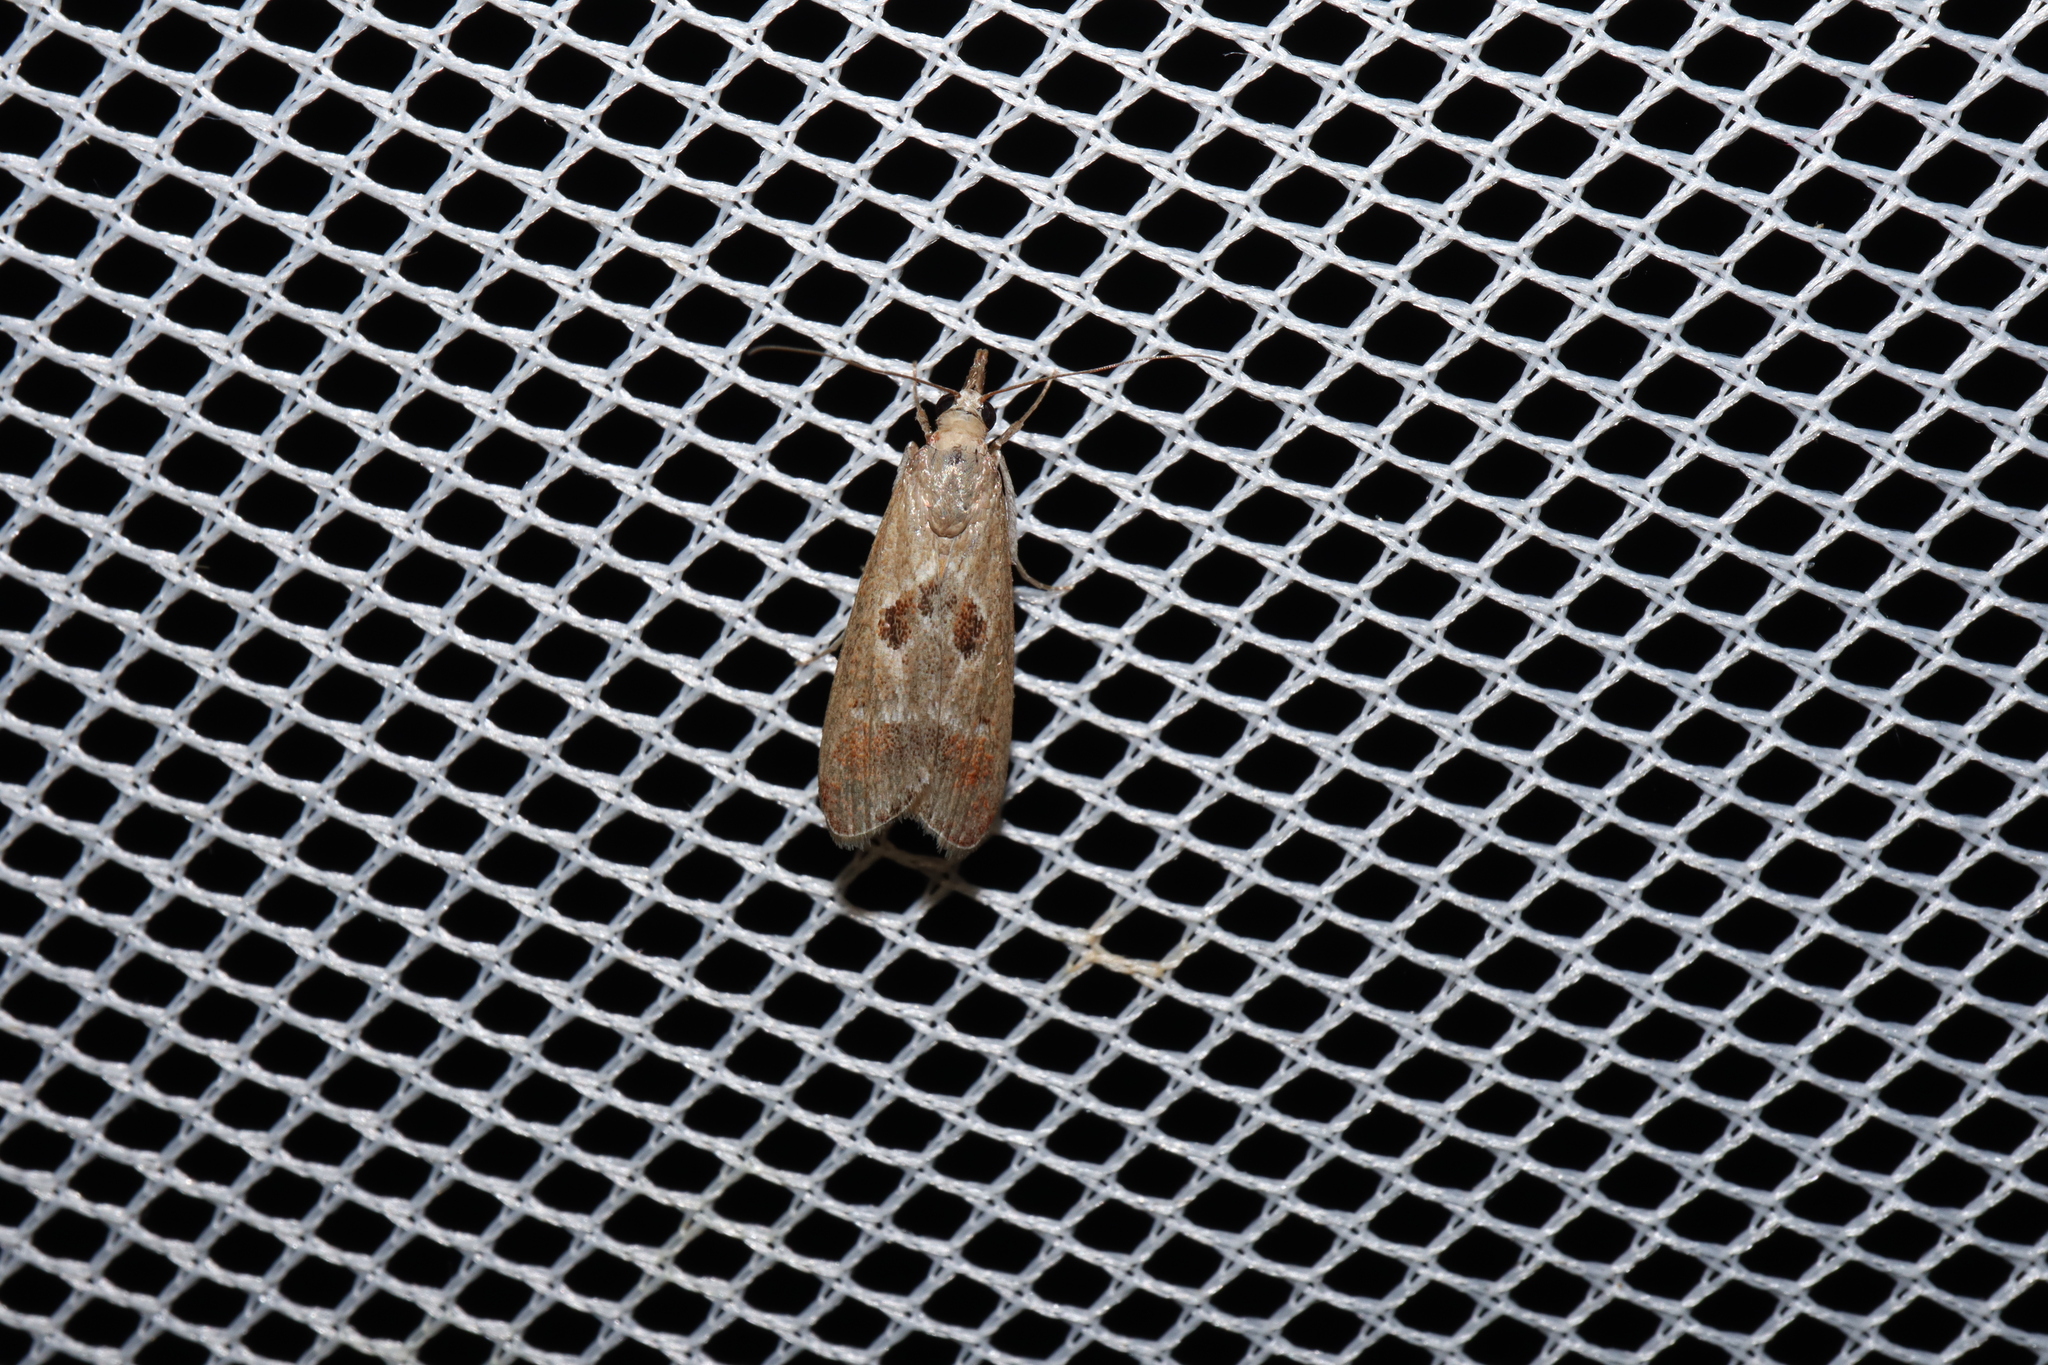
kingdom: Animalia
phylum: Arthropoda
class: Insecta
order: Lepidoptera
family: Crambidae
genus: Syntonarcha
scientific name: Syntonarcha iriastis
